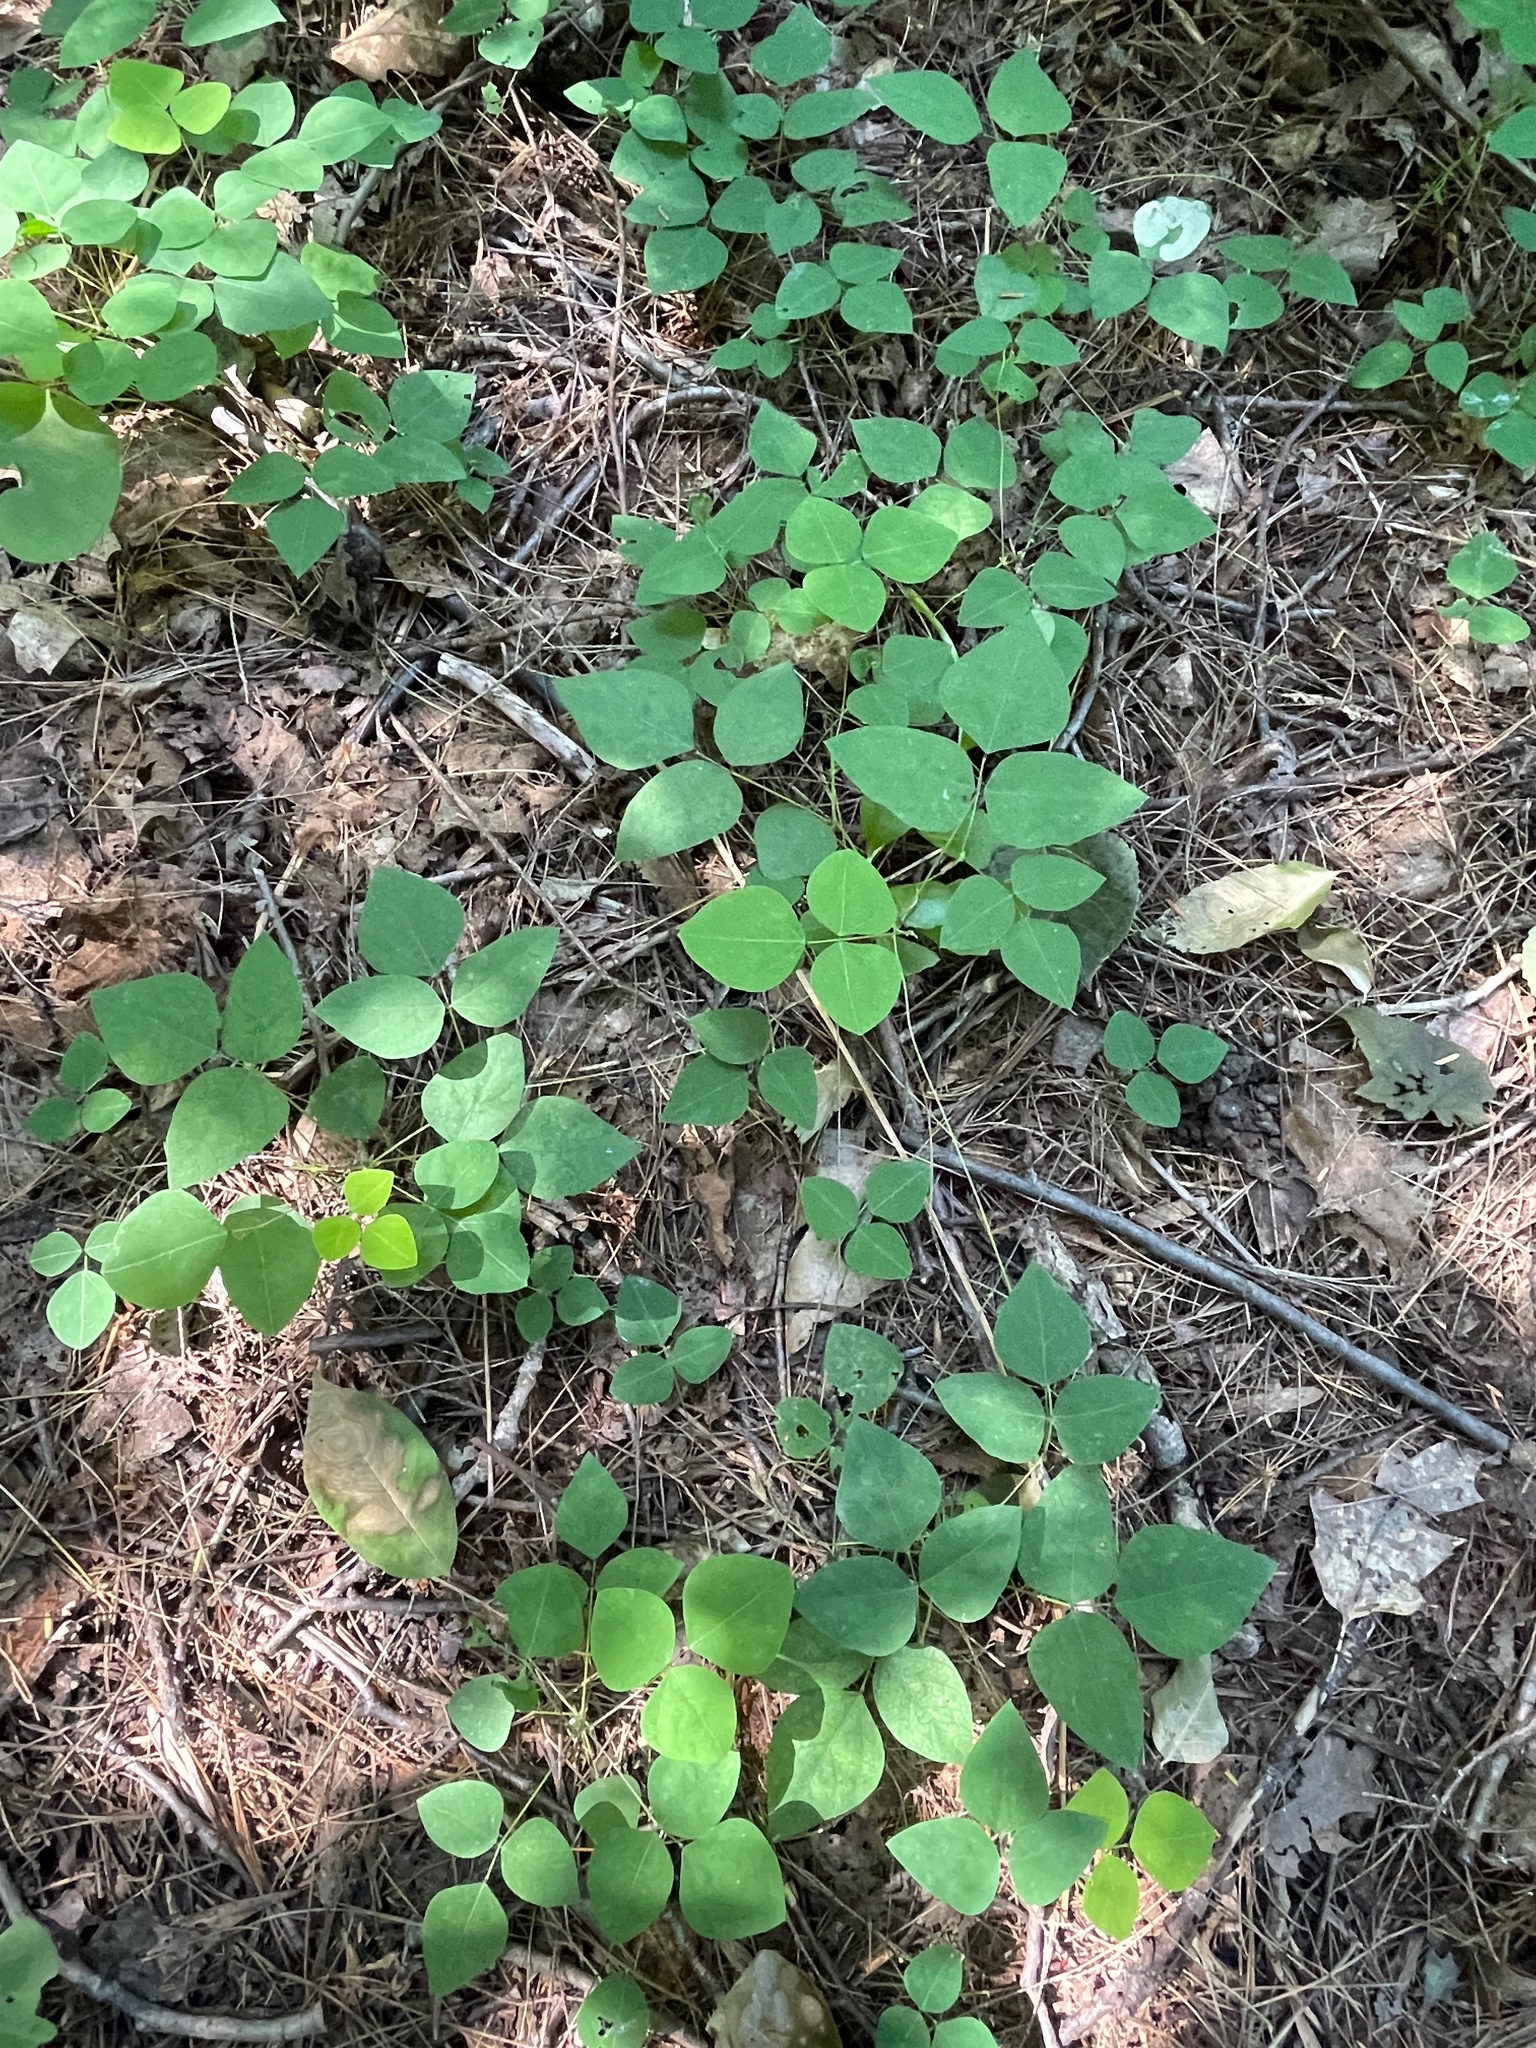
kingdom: Plantae
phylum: Tracheophyta
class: Magnoliopsida
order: Fabales
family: Fabaceae
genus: Amphicarpaea
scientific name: Amphicarpaea bracteata
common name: American hog peanut
